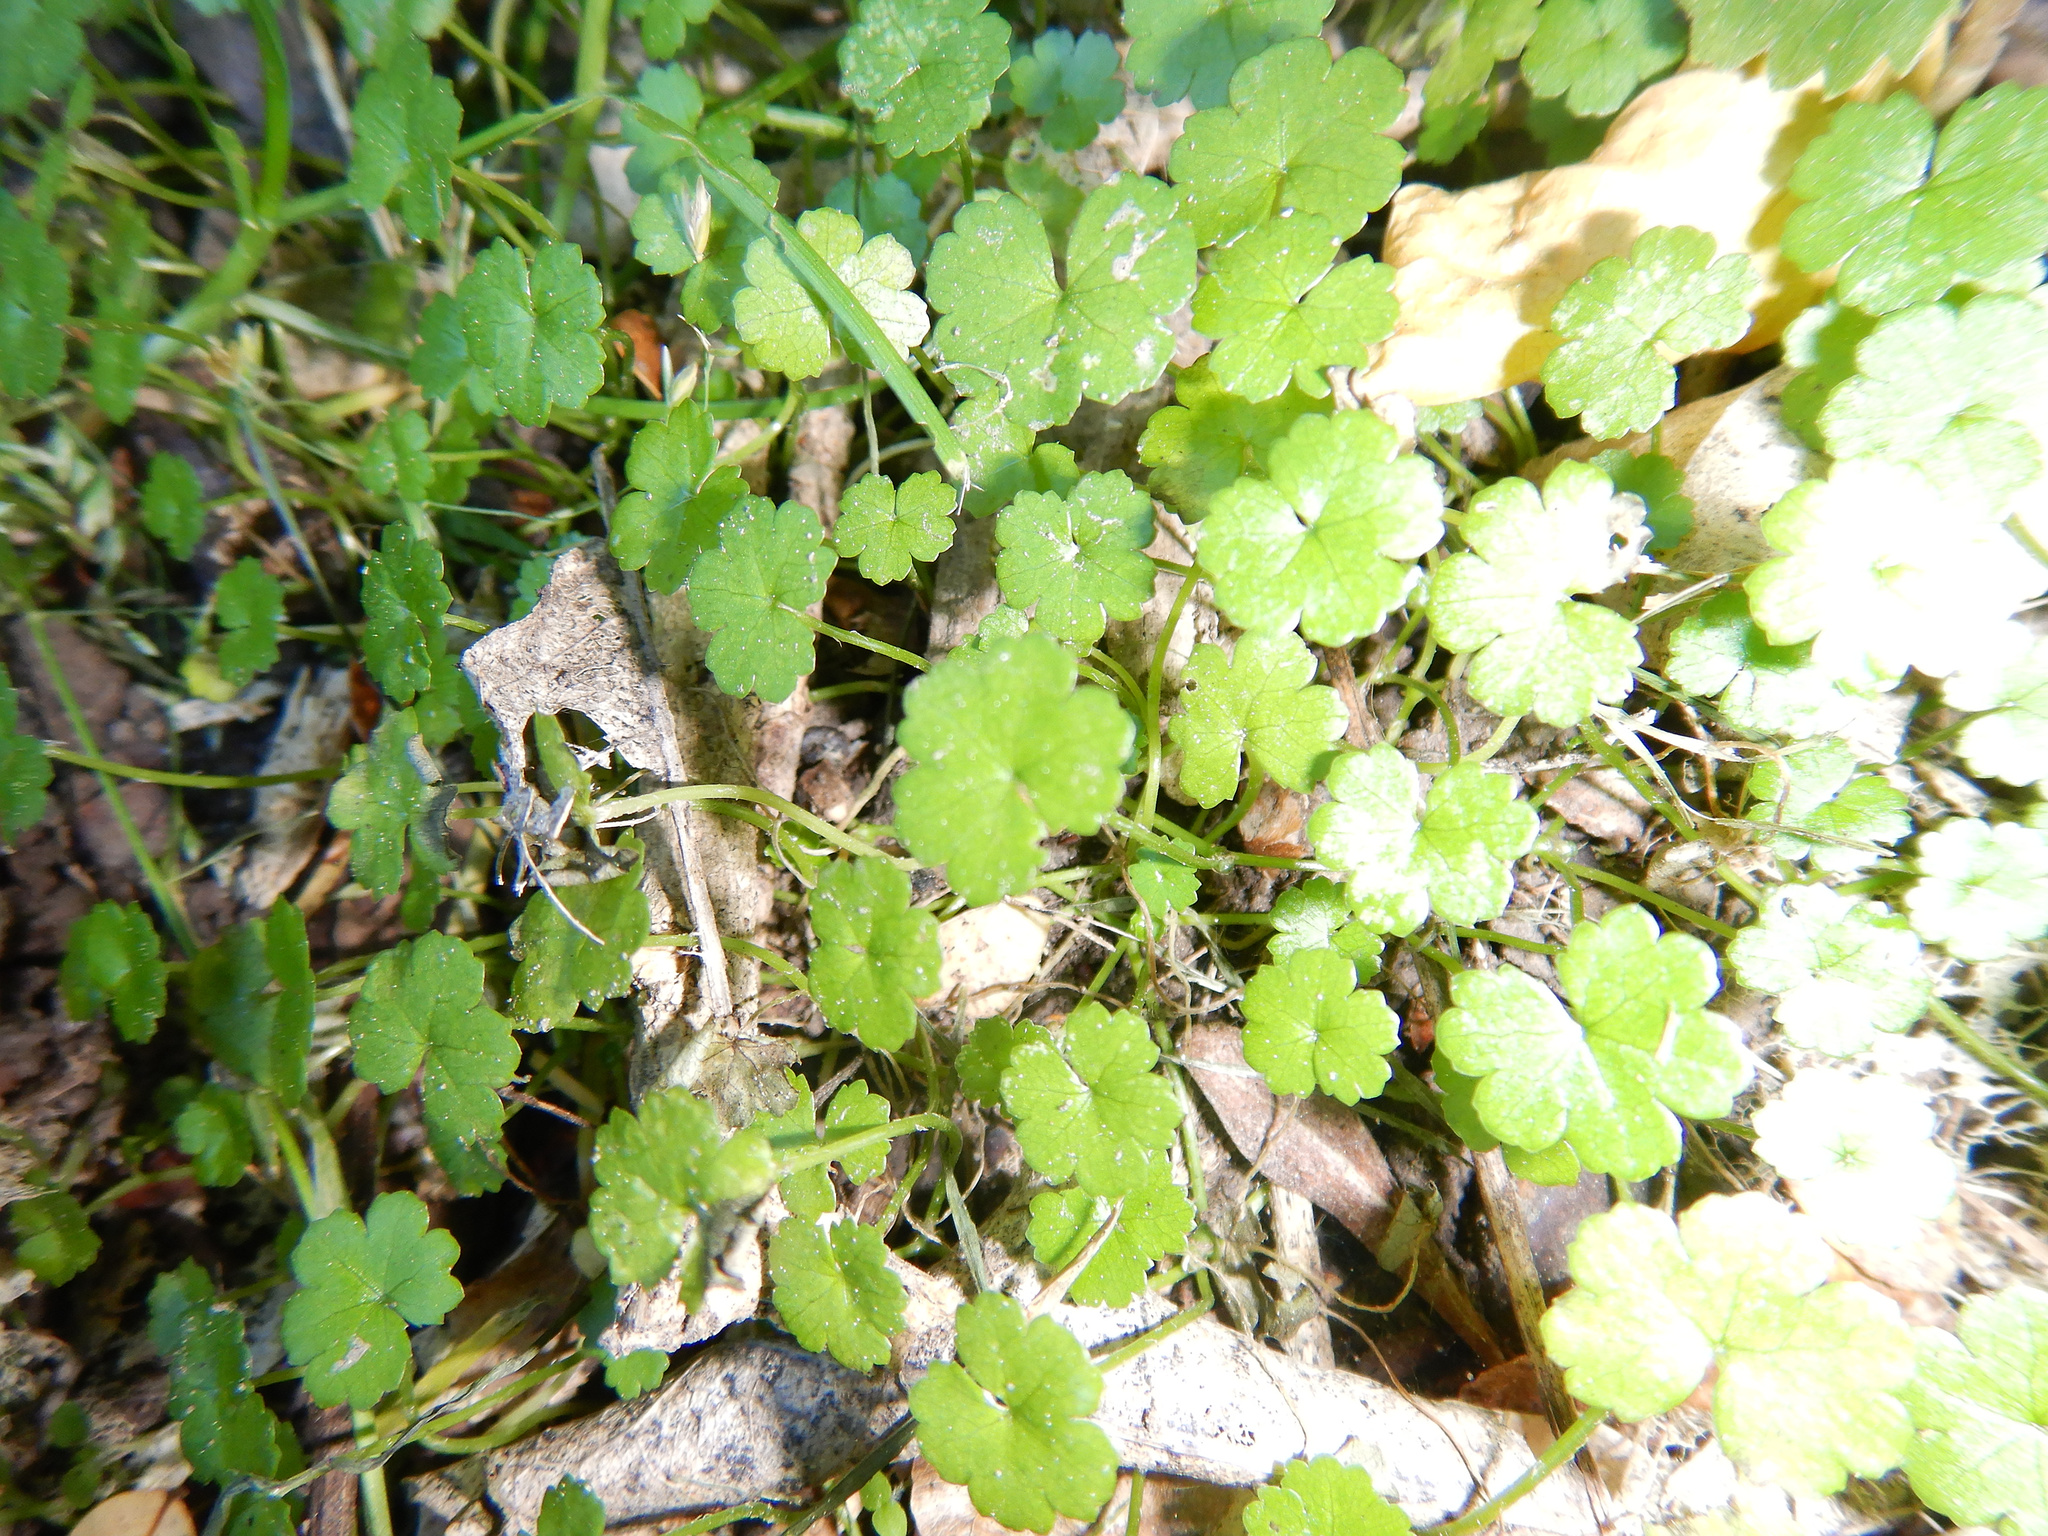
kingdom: Plantae
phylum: Tracheophyta
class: Magnoliopsida
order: Apiales
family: Araliaceae
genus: Hydrocotyle
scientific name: Hydrocotyle heteromeria
